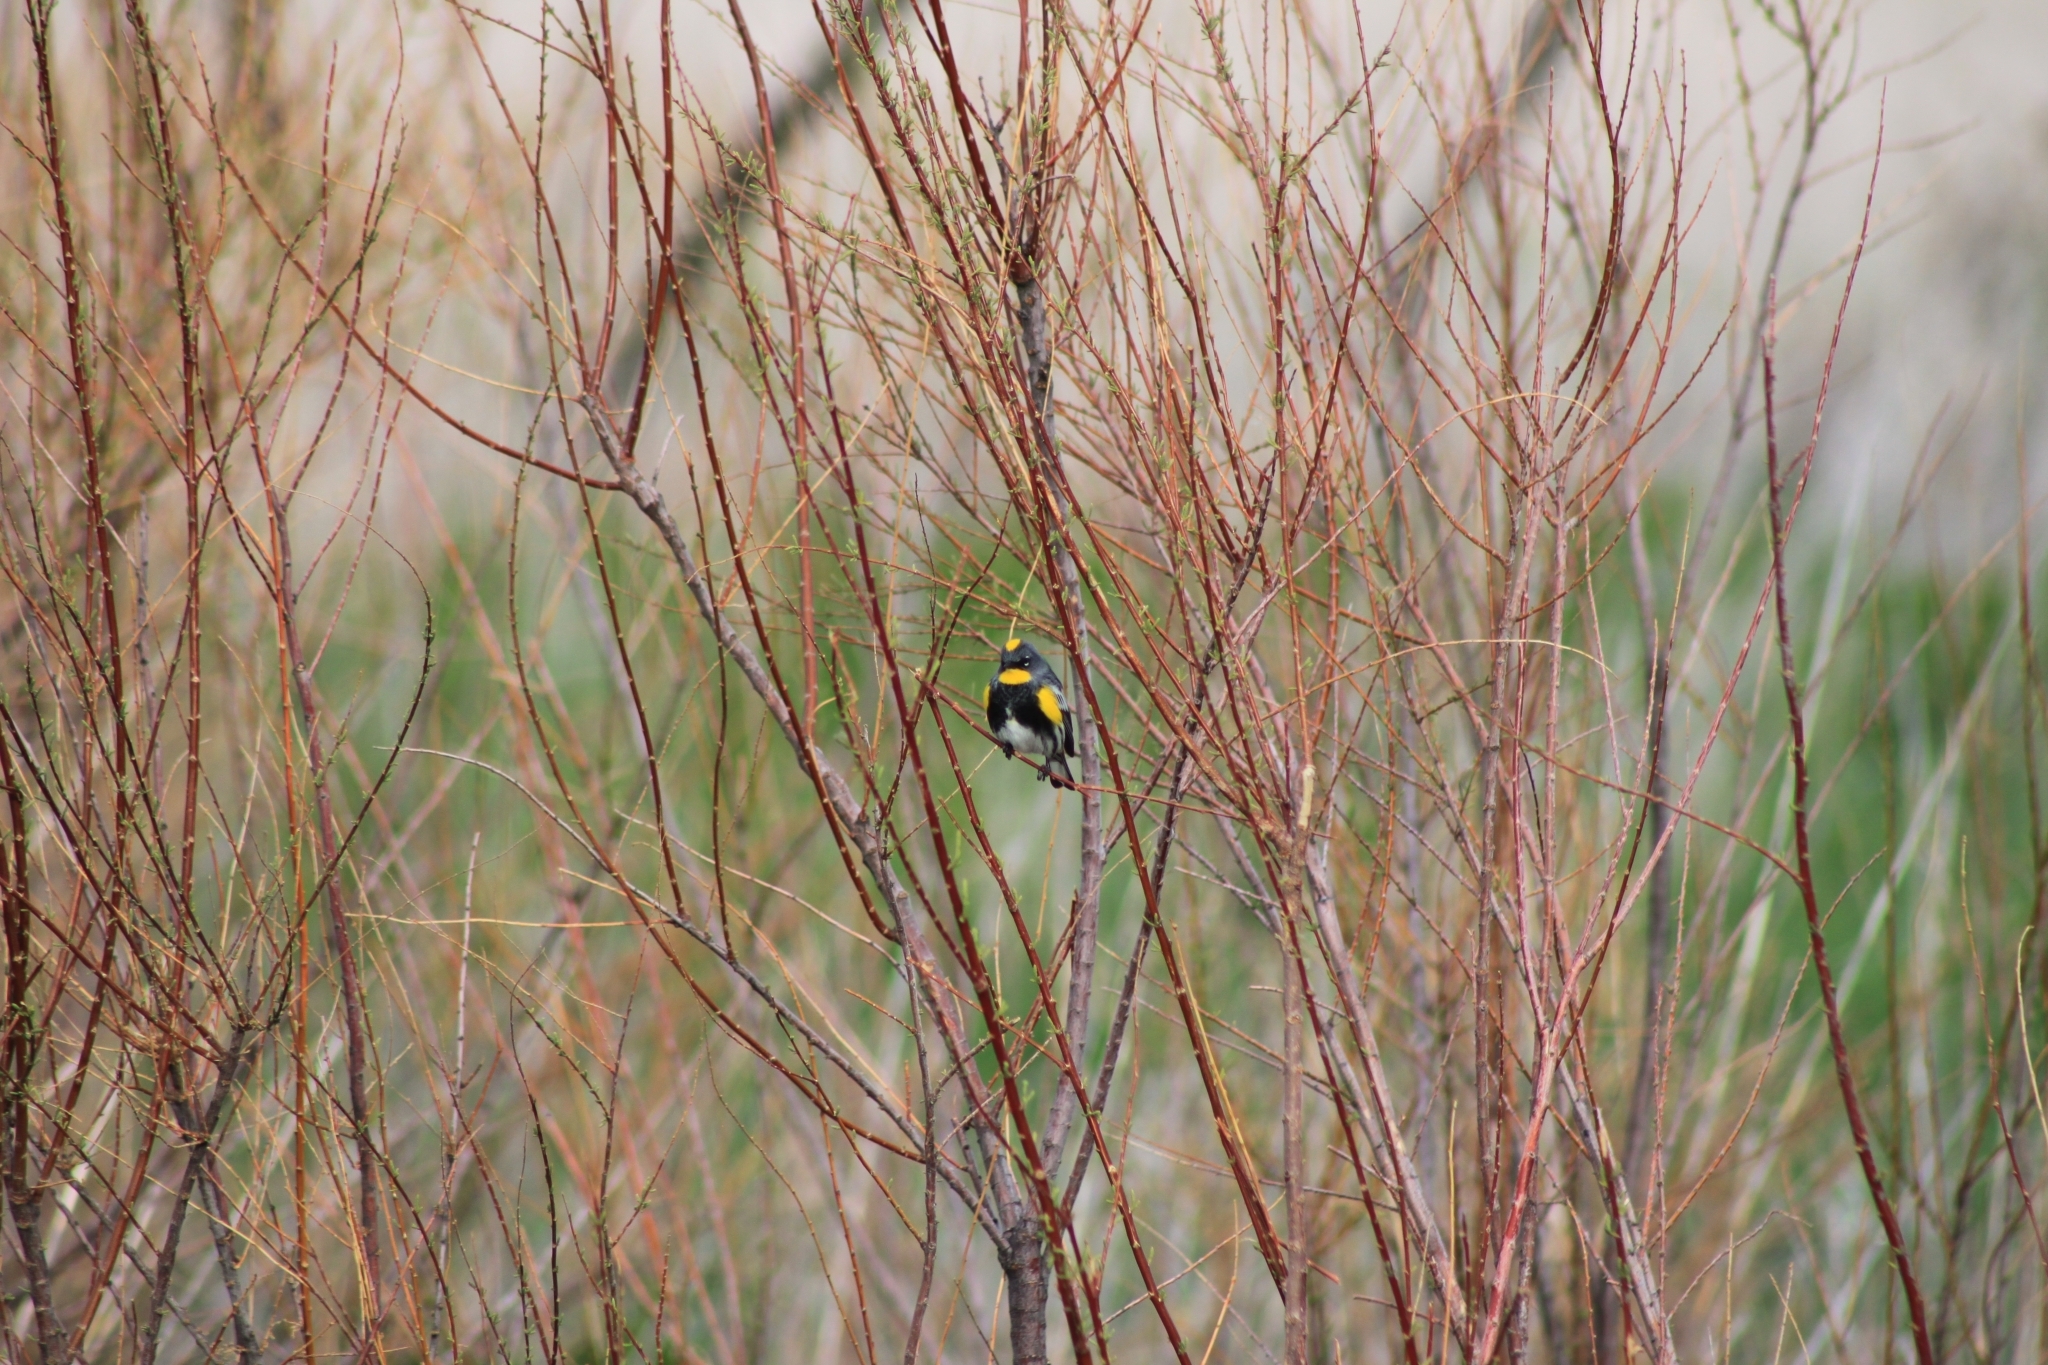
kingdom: Animalia
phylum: Chordata
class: Aves
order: Passeriformes
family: Parulidae
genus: Setophaga
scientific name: Setophaga coronata
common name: Myrtle warbler
